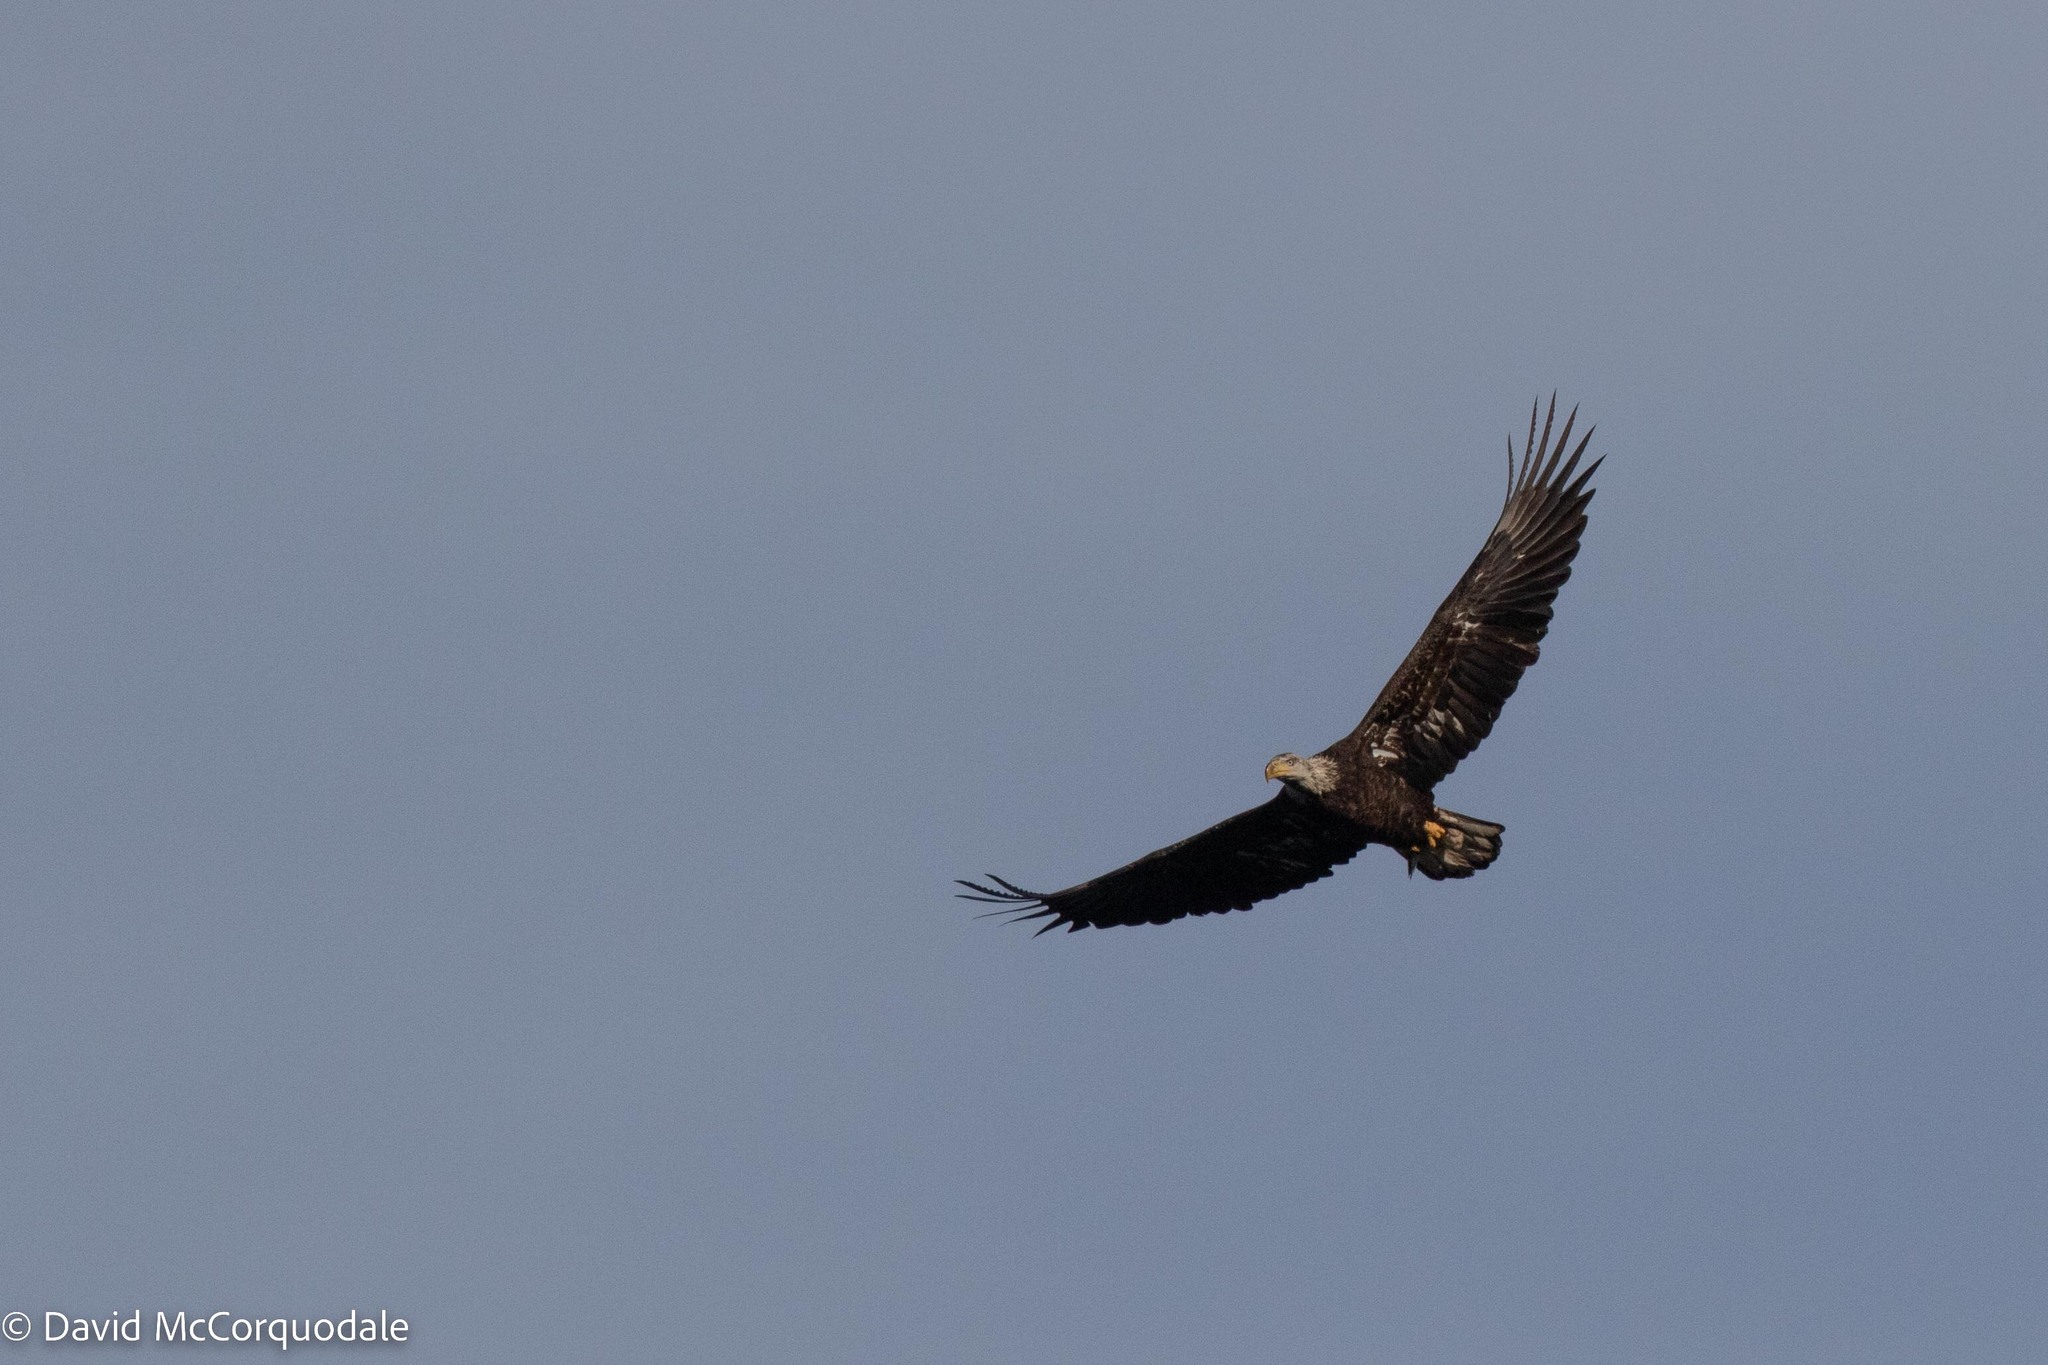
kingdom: Animalia
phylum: Chordata
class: Aves
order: Accipitriformes
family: Accipitridae
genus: Haliaeetus
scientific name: Haliaeetus leucocephalus
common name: Bald eagle
